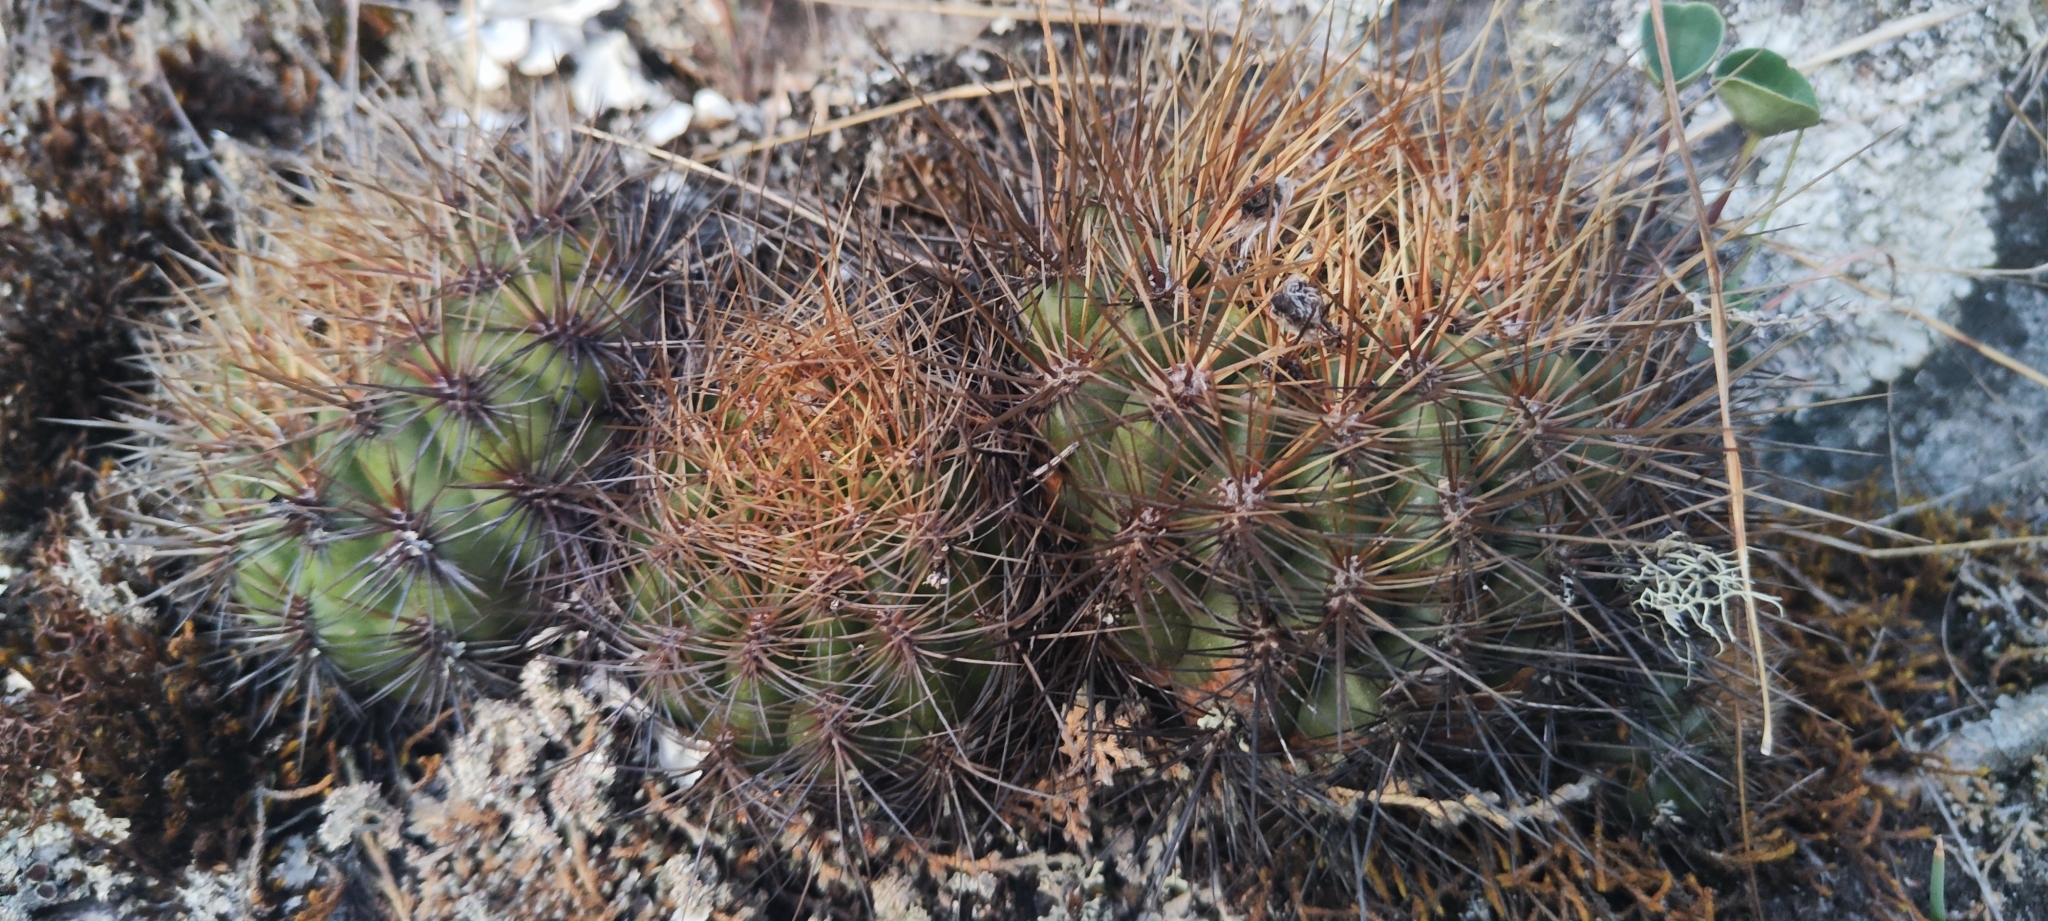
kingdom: Plantae
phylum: Tracheophyta
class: Magnoliopsida
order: Caryophyllales
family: Cactaceae
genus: Matucana
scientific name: Matucana aurantiaca
